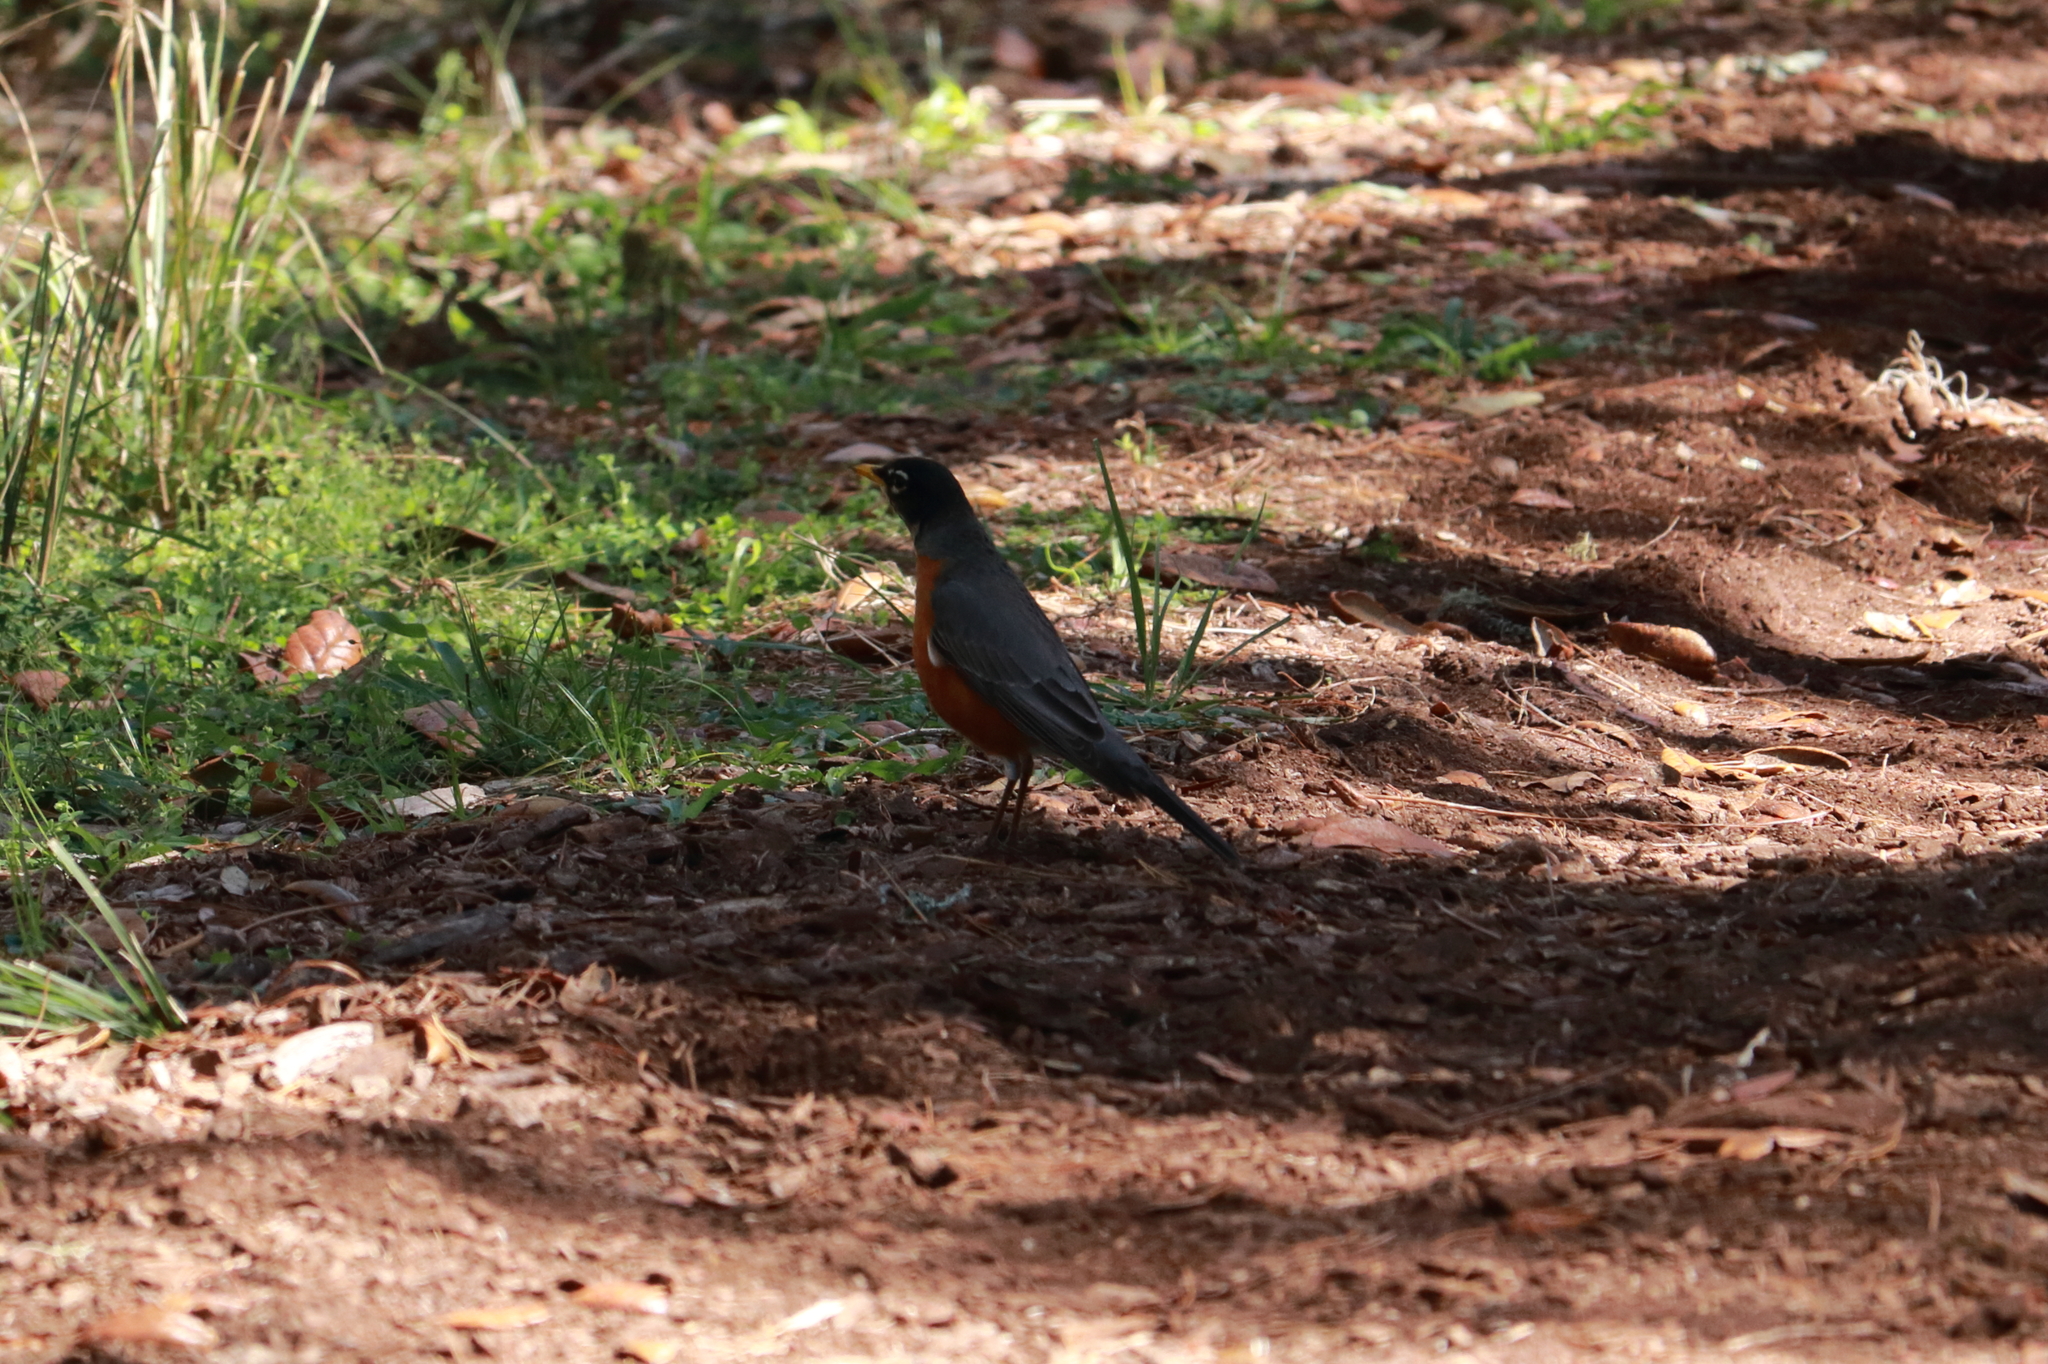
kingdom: Animalia
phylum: Chordata
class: Aves
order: Passeriformes
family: Turdidae
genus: Turdus
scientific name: Turdus migratorius
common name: American robin
